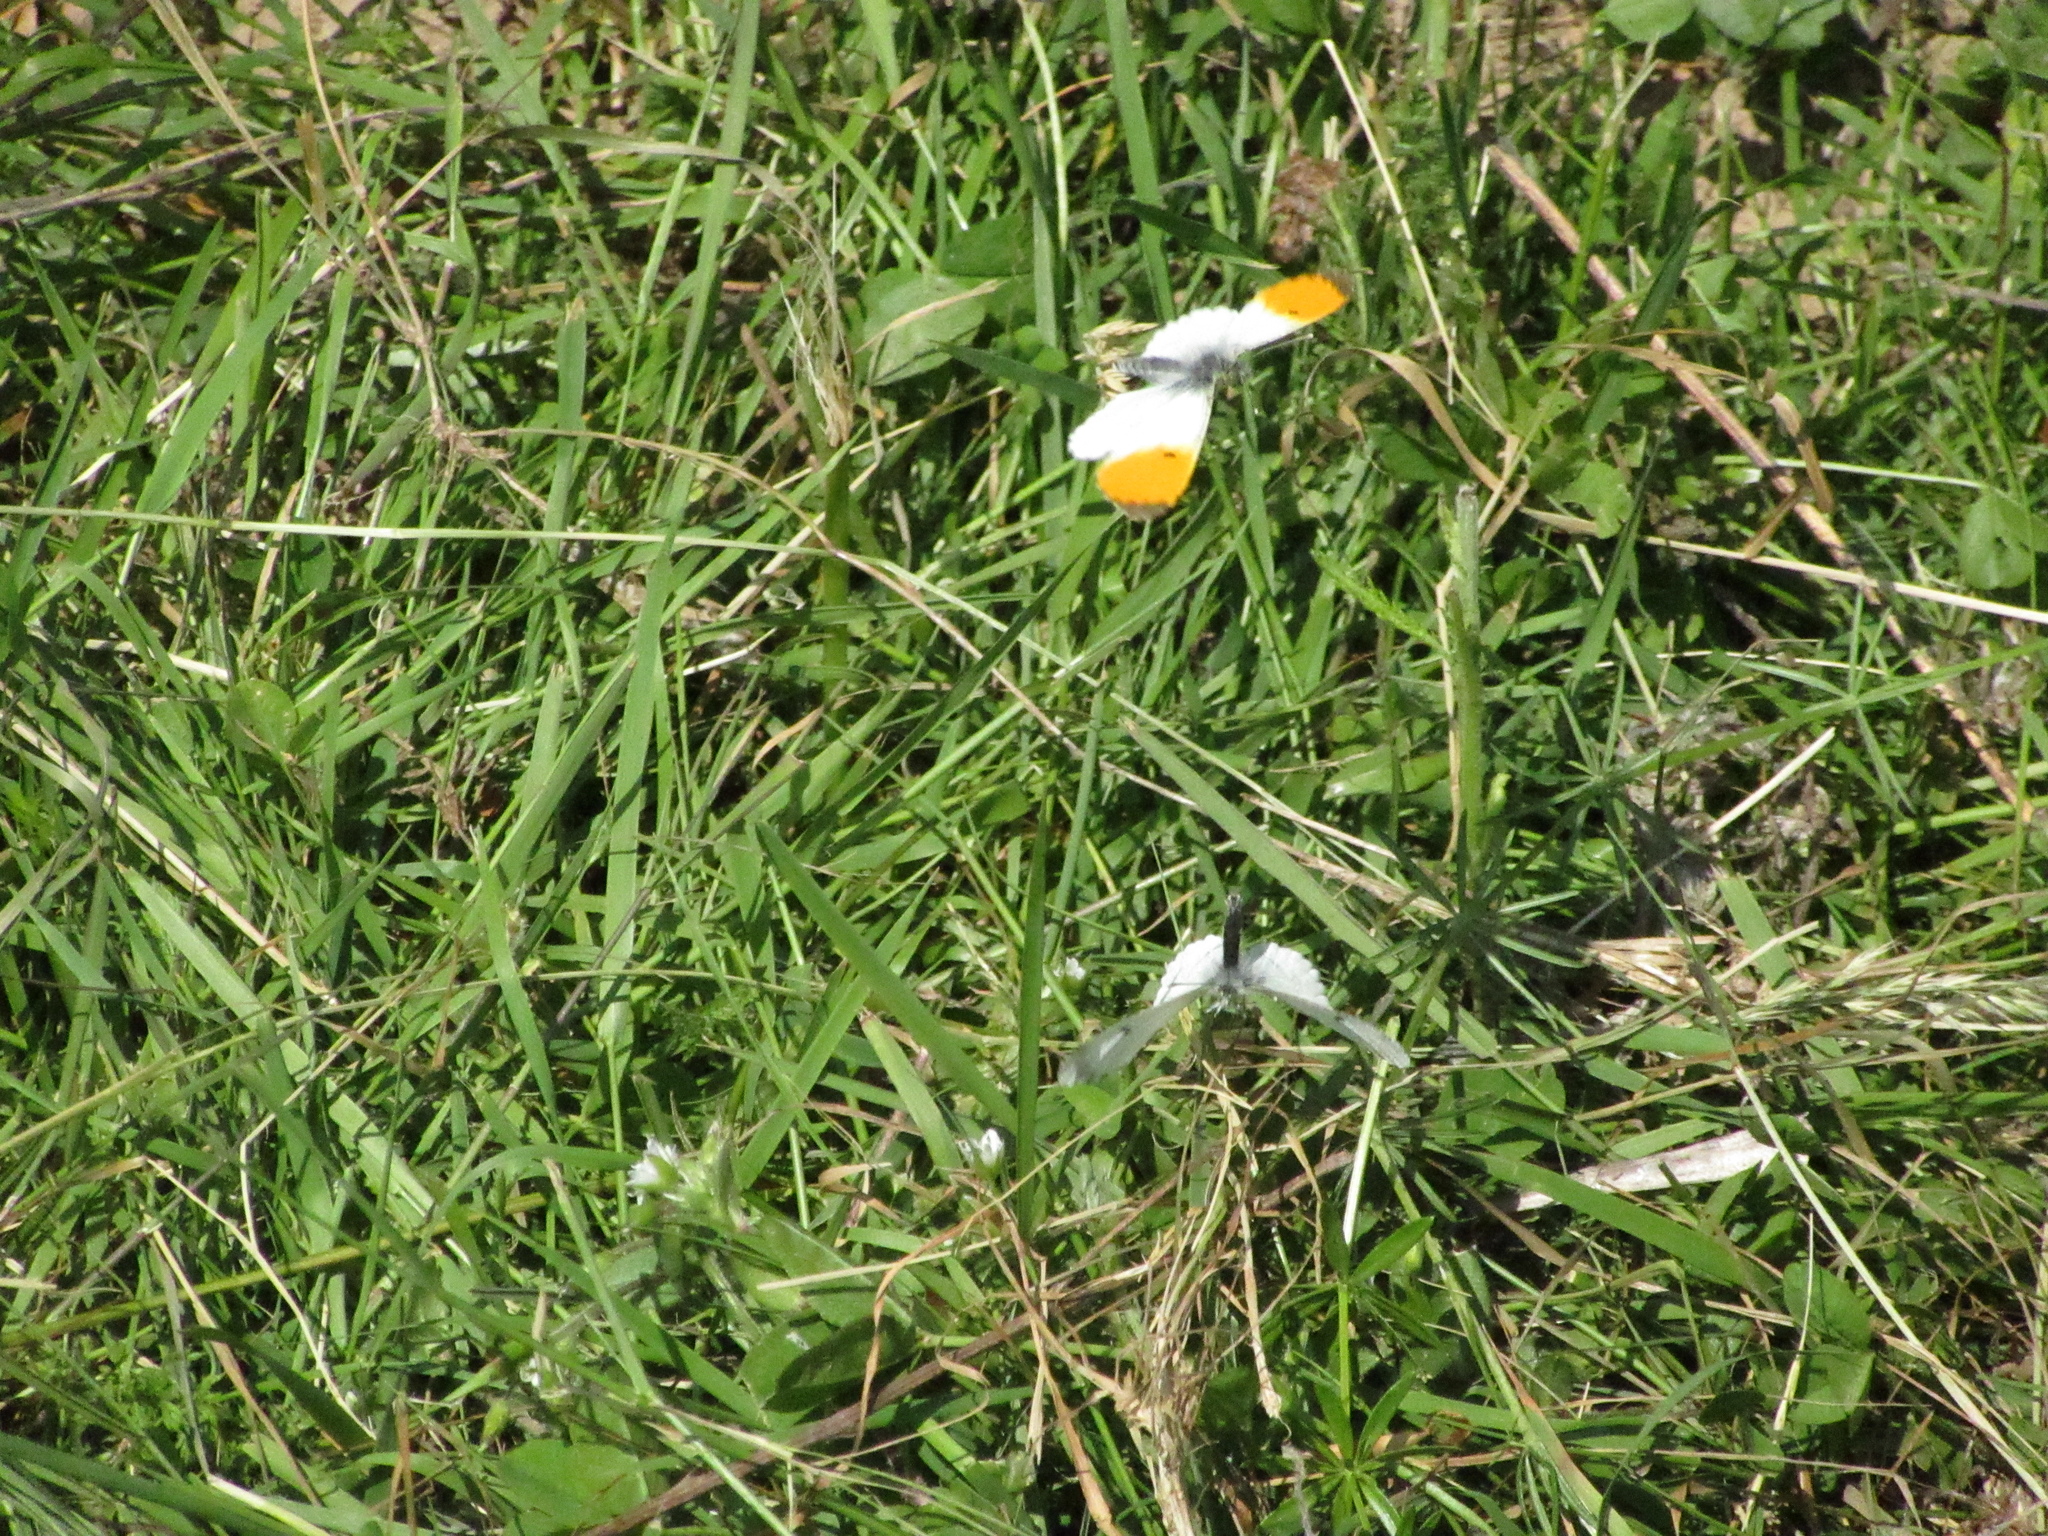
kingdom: Animalia
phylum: Arthropoda
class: Insecta
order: Lepidoptera
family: Pieridae
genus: Anthocharis
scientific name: Anthocharis cardamines
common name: Orange-tip
